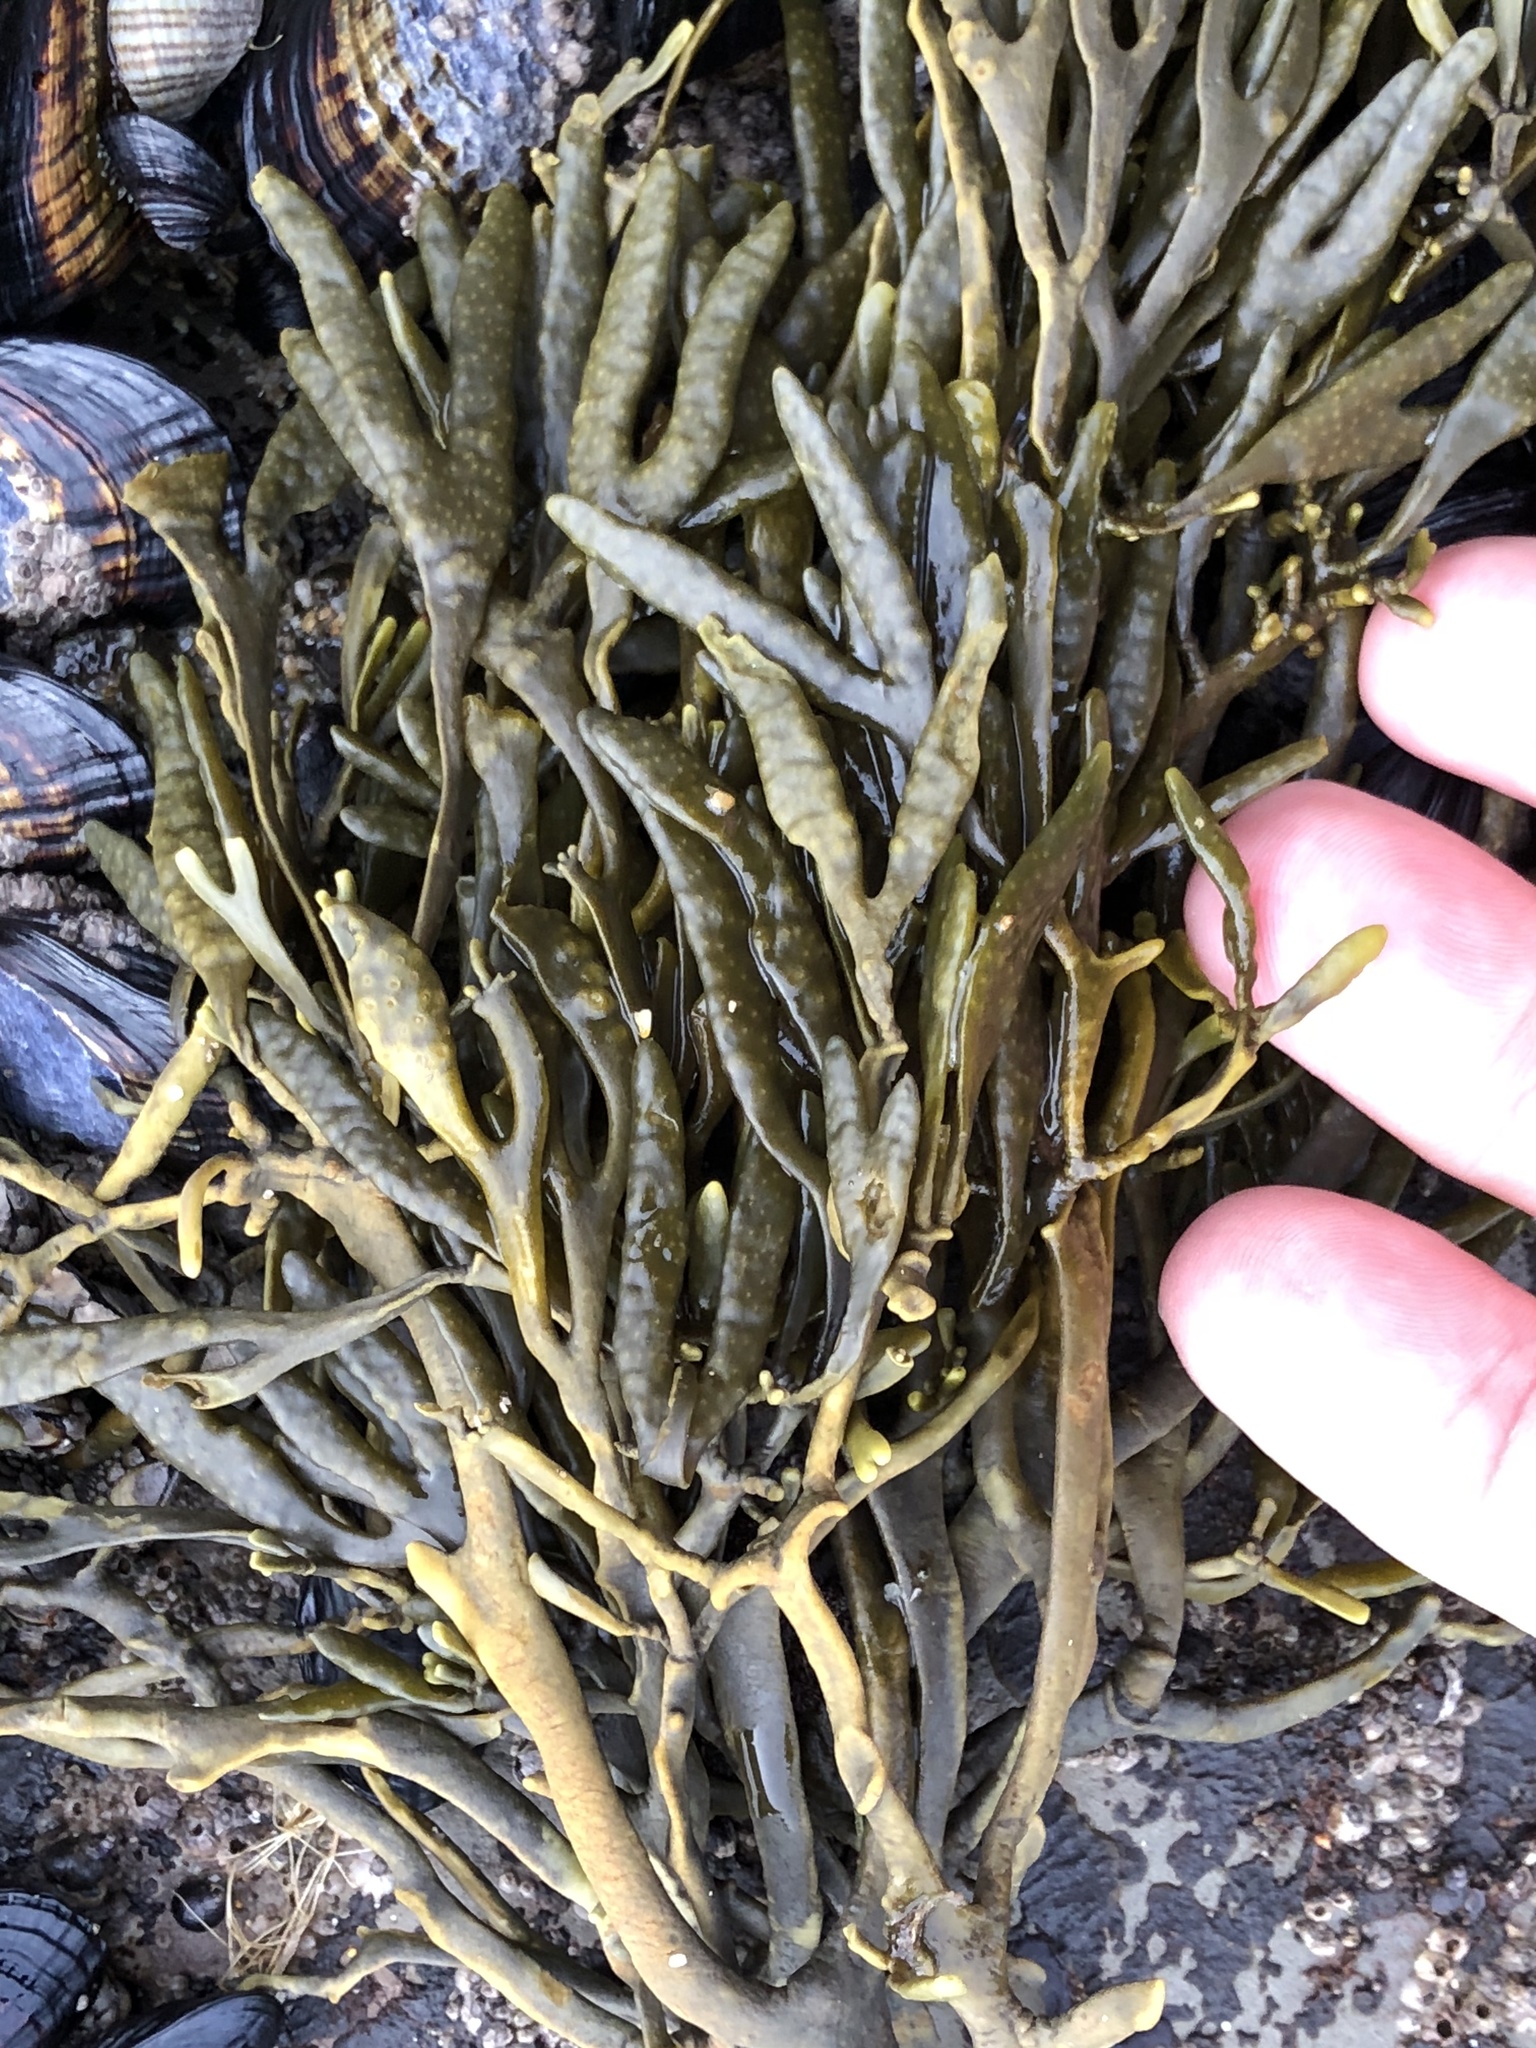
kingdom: Chromista
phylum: Ochrophyta
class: Phaeophyceae
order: Fucales
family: Fucaceae
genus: Silvetia
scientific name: Silvetia
